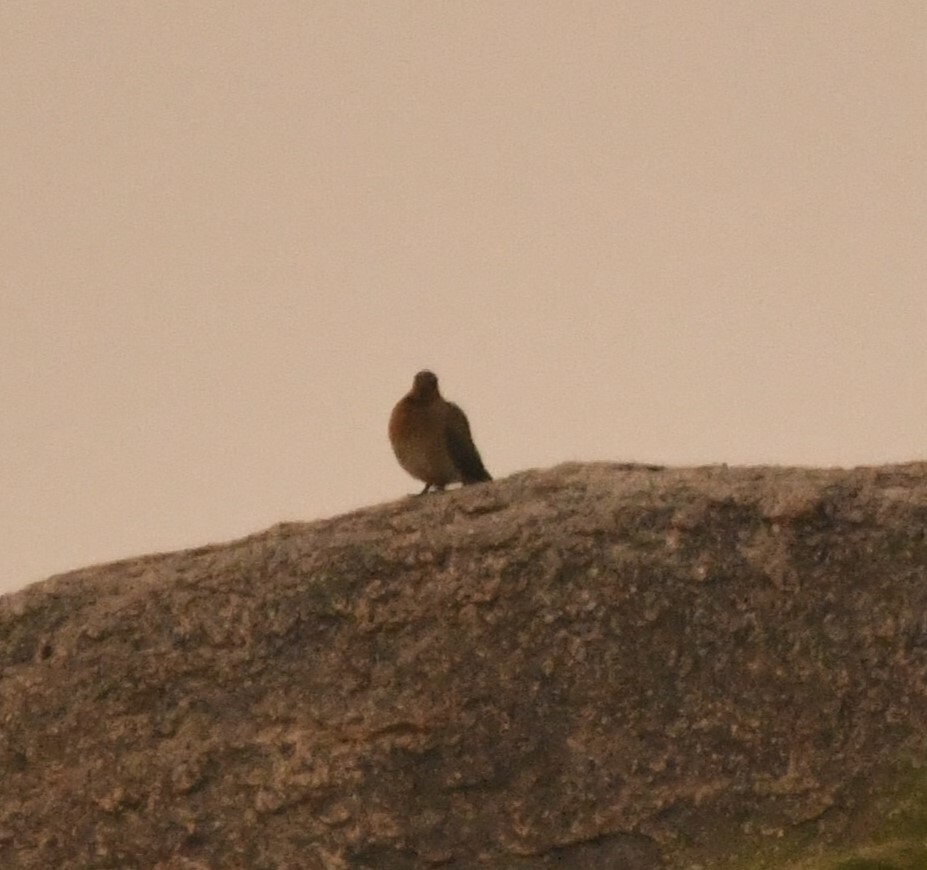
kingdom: Animalia
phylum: Chordata
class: Aves
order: Columbiformes
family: Columbidae
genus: Spilopelia
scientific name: Spilopelia senegalensis
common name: Laughing dove
